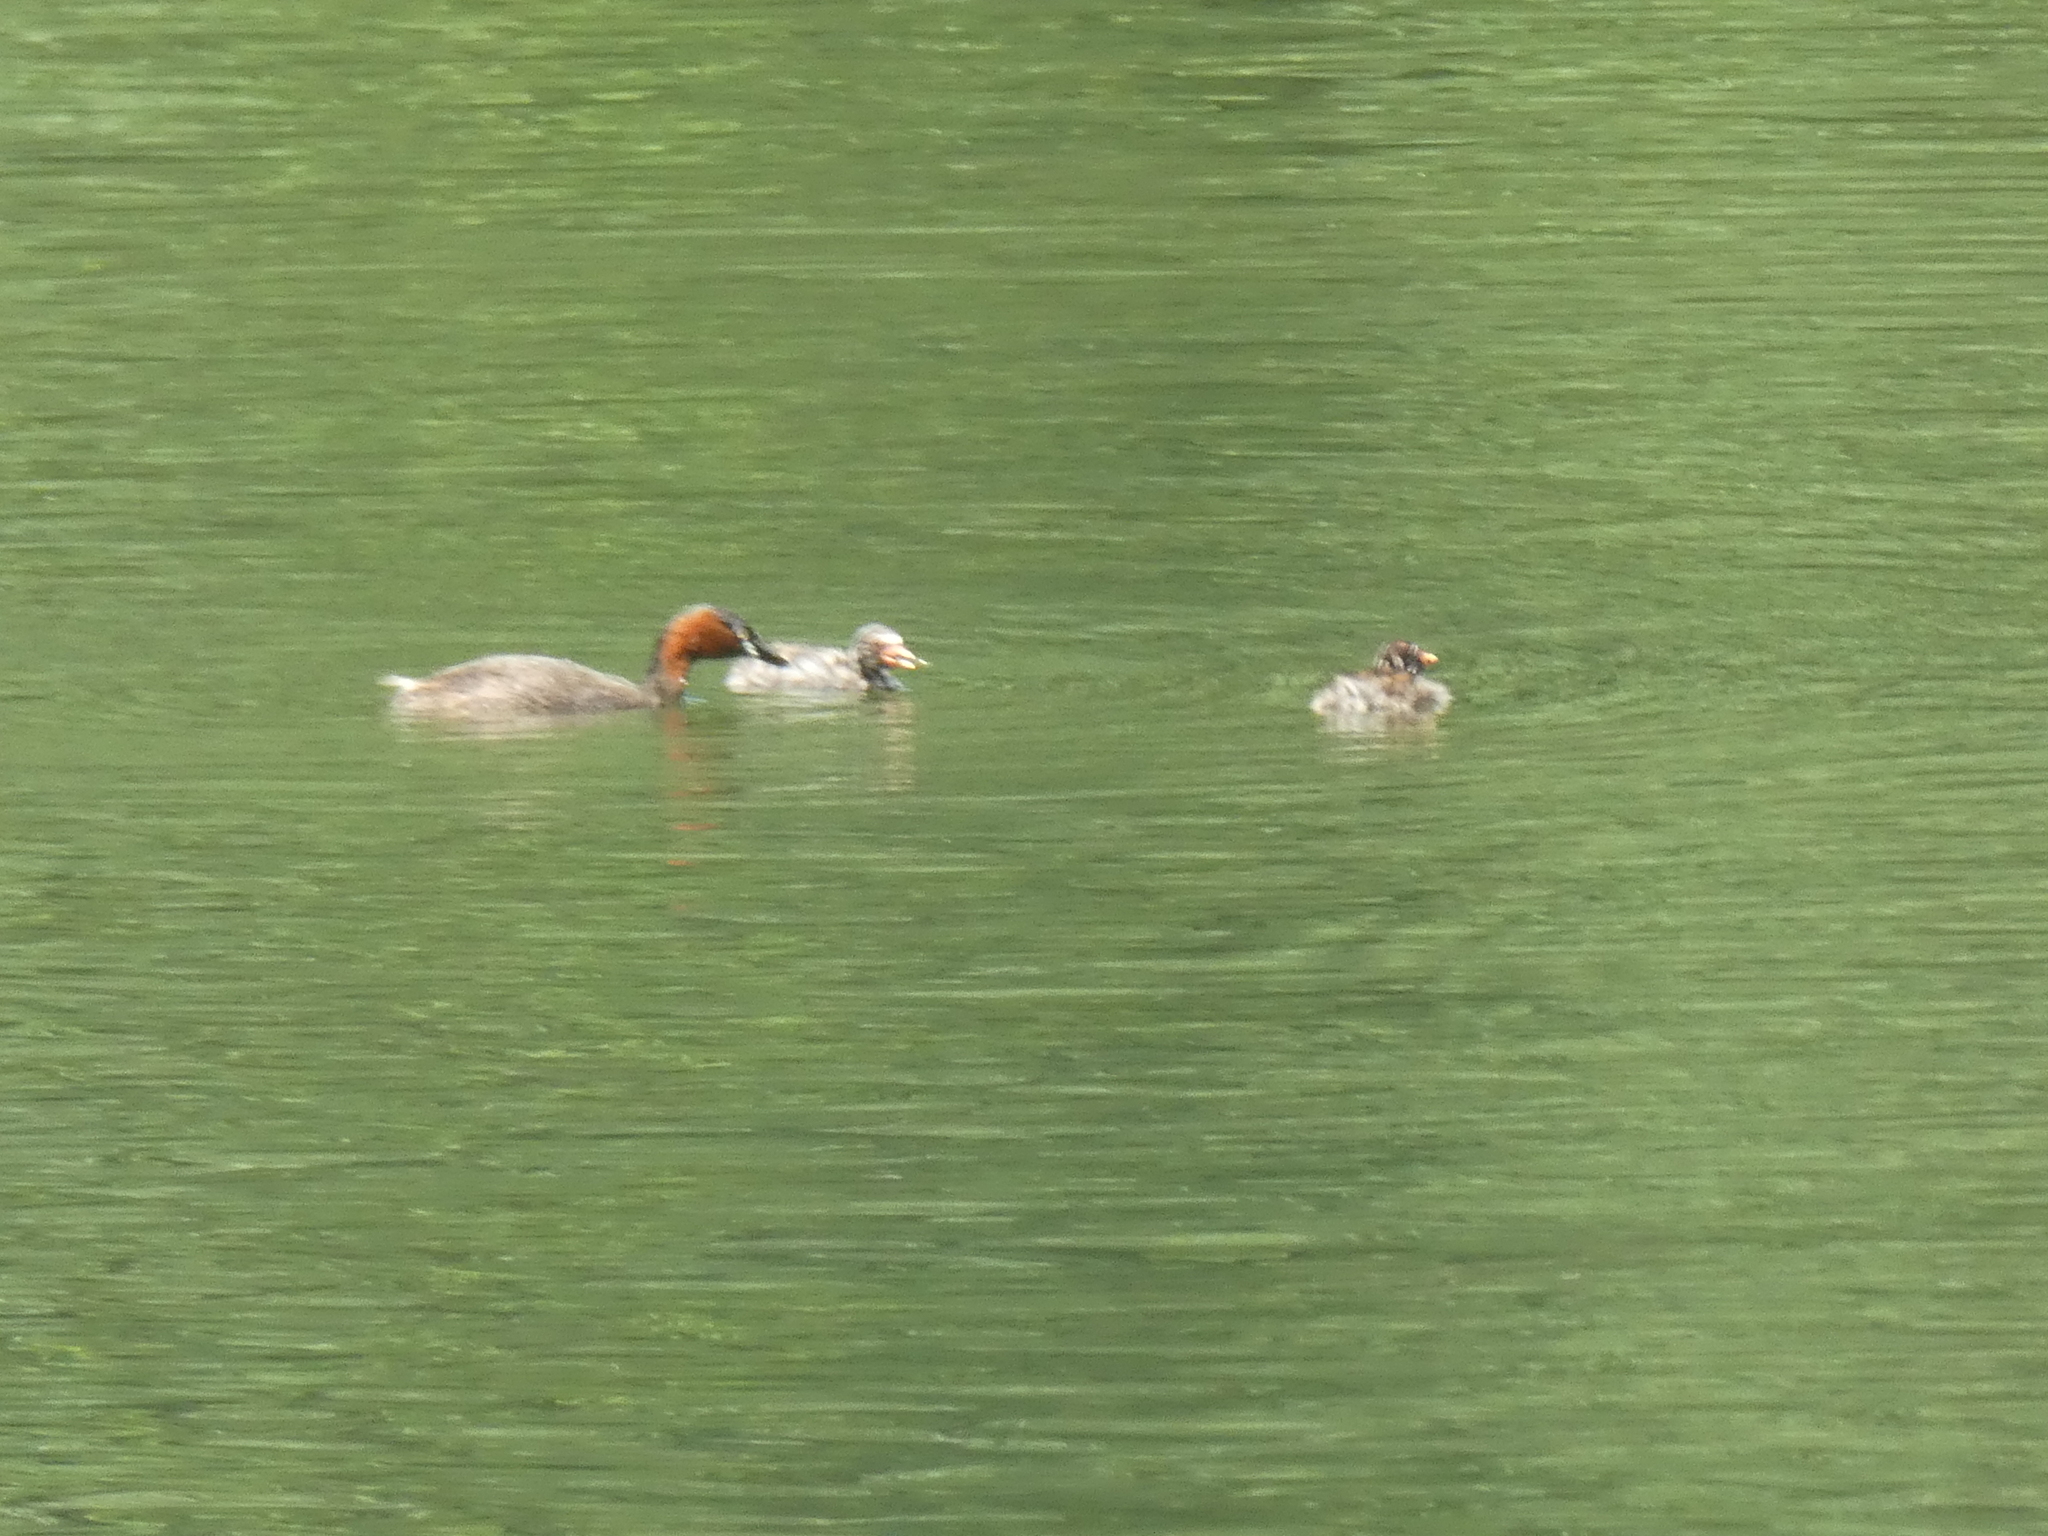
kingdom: Animalia
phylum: Chordata
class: Aves
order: Podicipediformes
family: Podicipedidae
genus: Tachybaptus
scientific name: Tachybaptus ruficollis
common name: Little grebe
